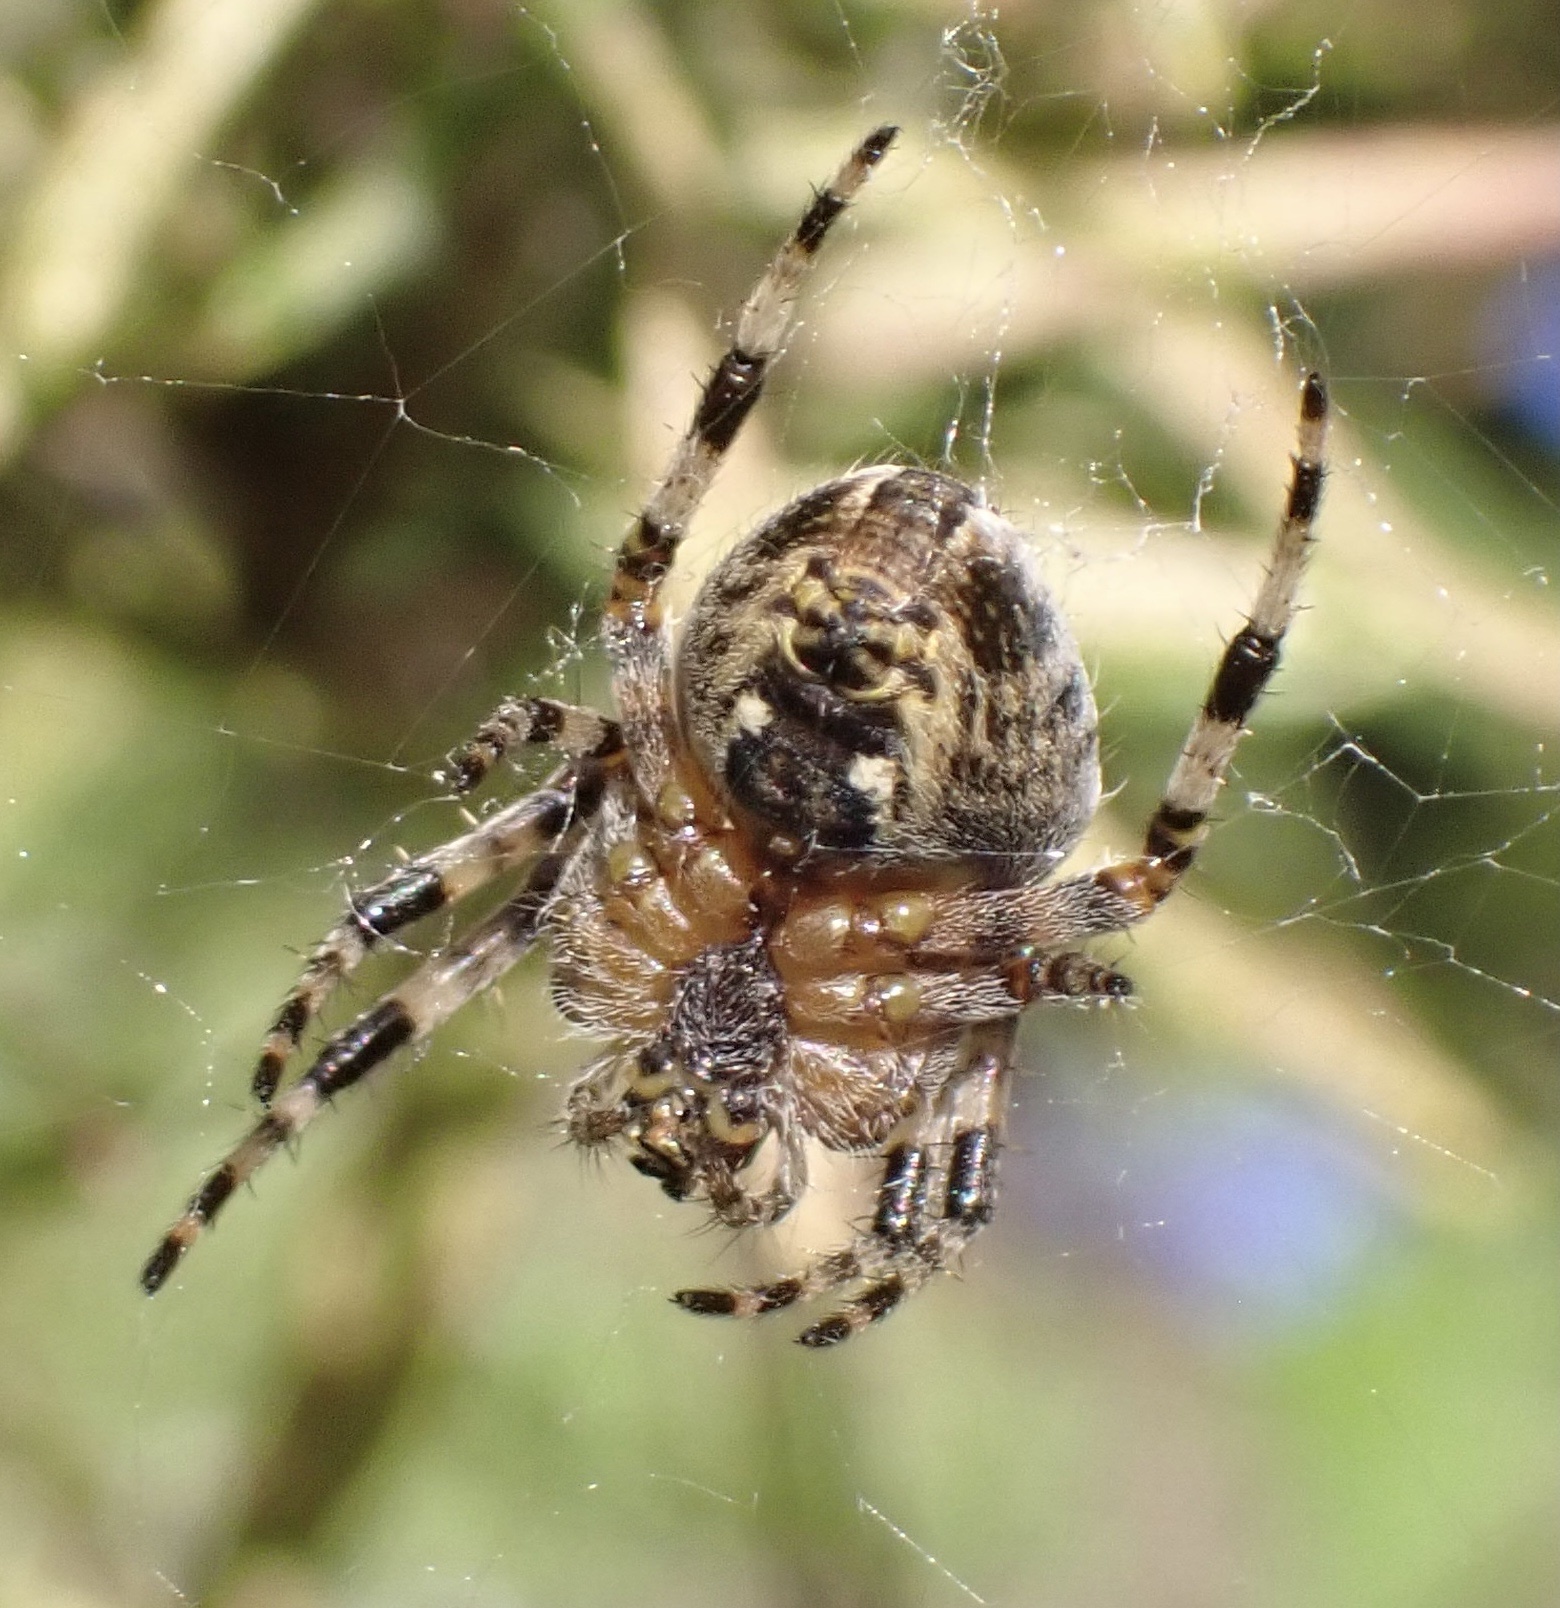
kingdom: Animalia
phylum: Arthropoda
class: Arachnida
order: Araneae
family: Araneidae
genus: Araneus
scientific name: Araneus diadematus
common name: Cross orbweaver
